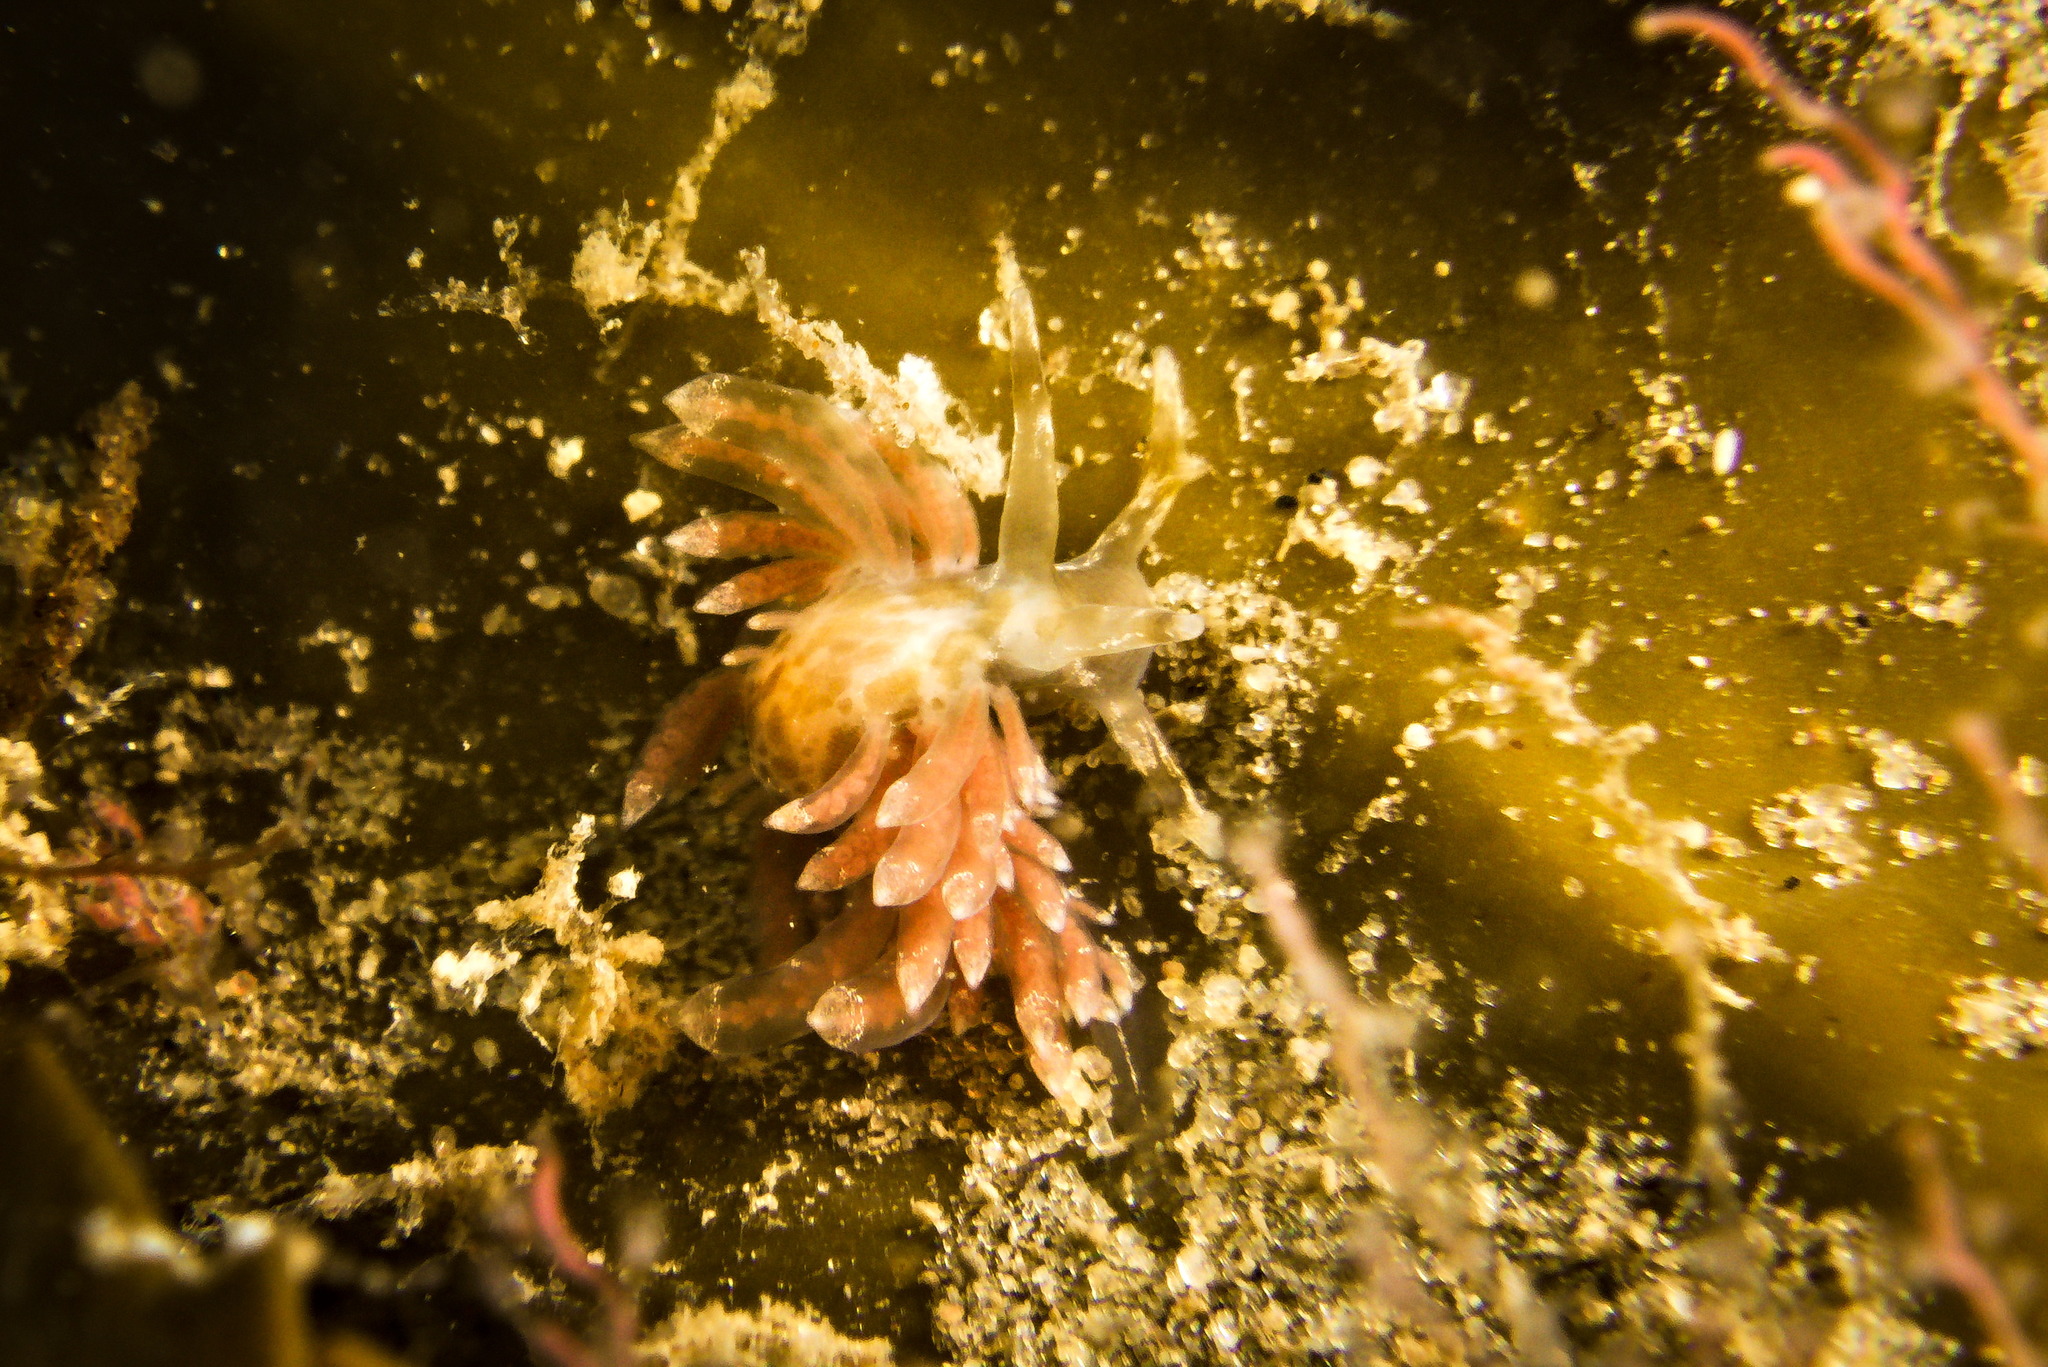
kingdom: Animalia
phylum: Mollusca
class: Gastropoda
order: Nudibranchia
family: Eubranchidae
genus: Amphorina
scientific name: Amphorina viriola
